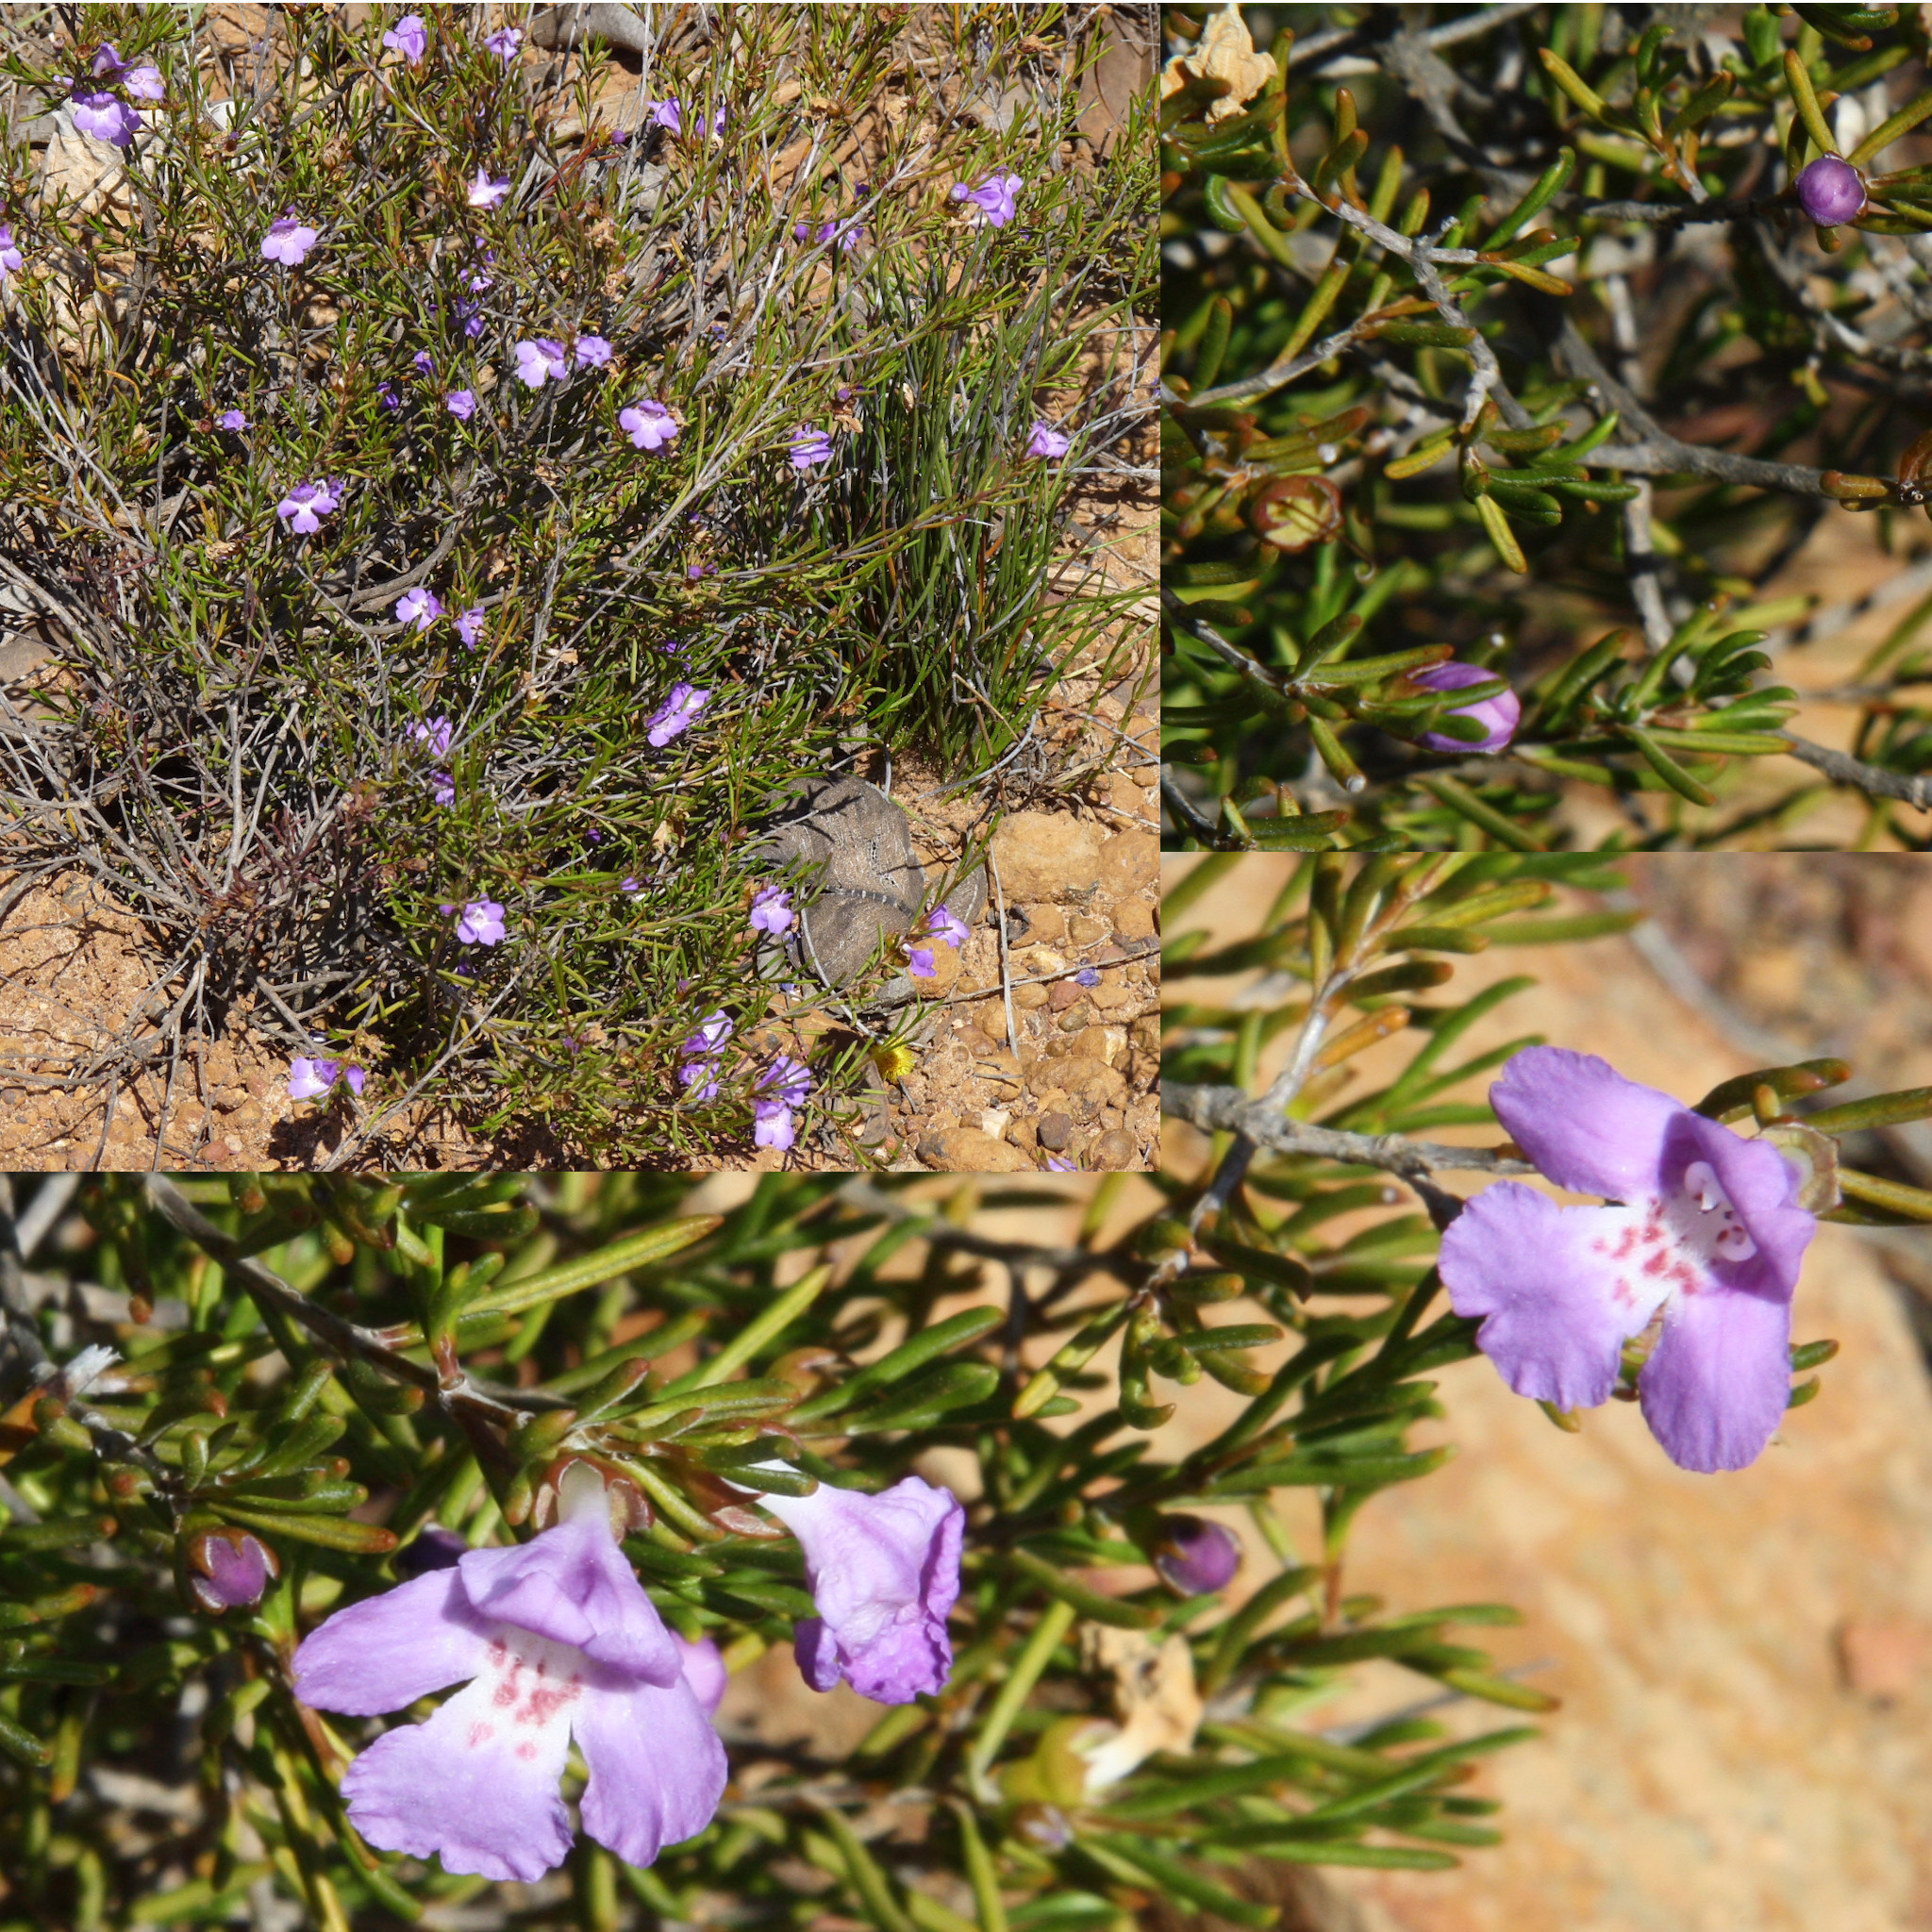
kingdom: Plantae
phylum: Tracheophyta
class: Magnoliopsida
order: Lamiales
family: Lamiaceae
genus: Hemigenia
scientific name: Hemigenia teretiuscula
